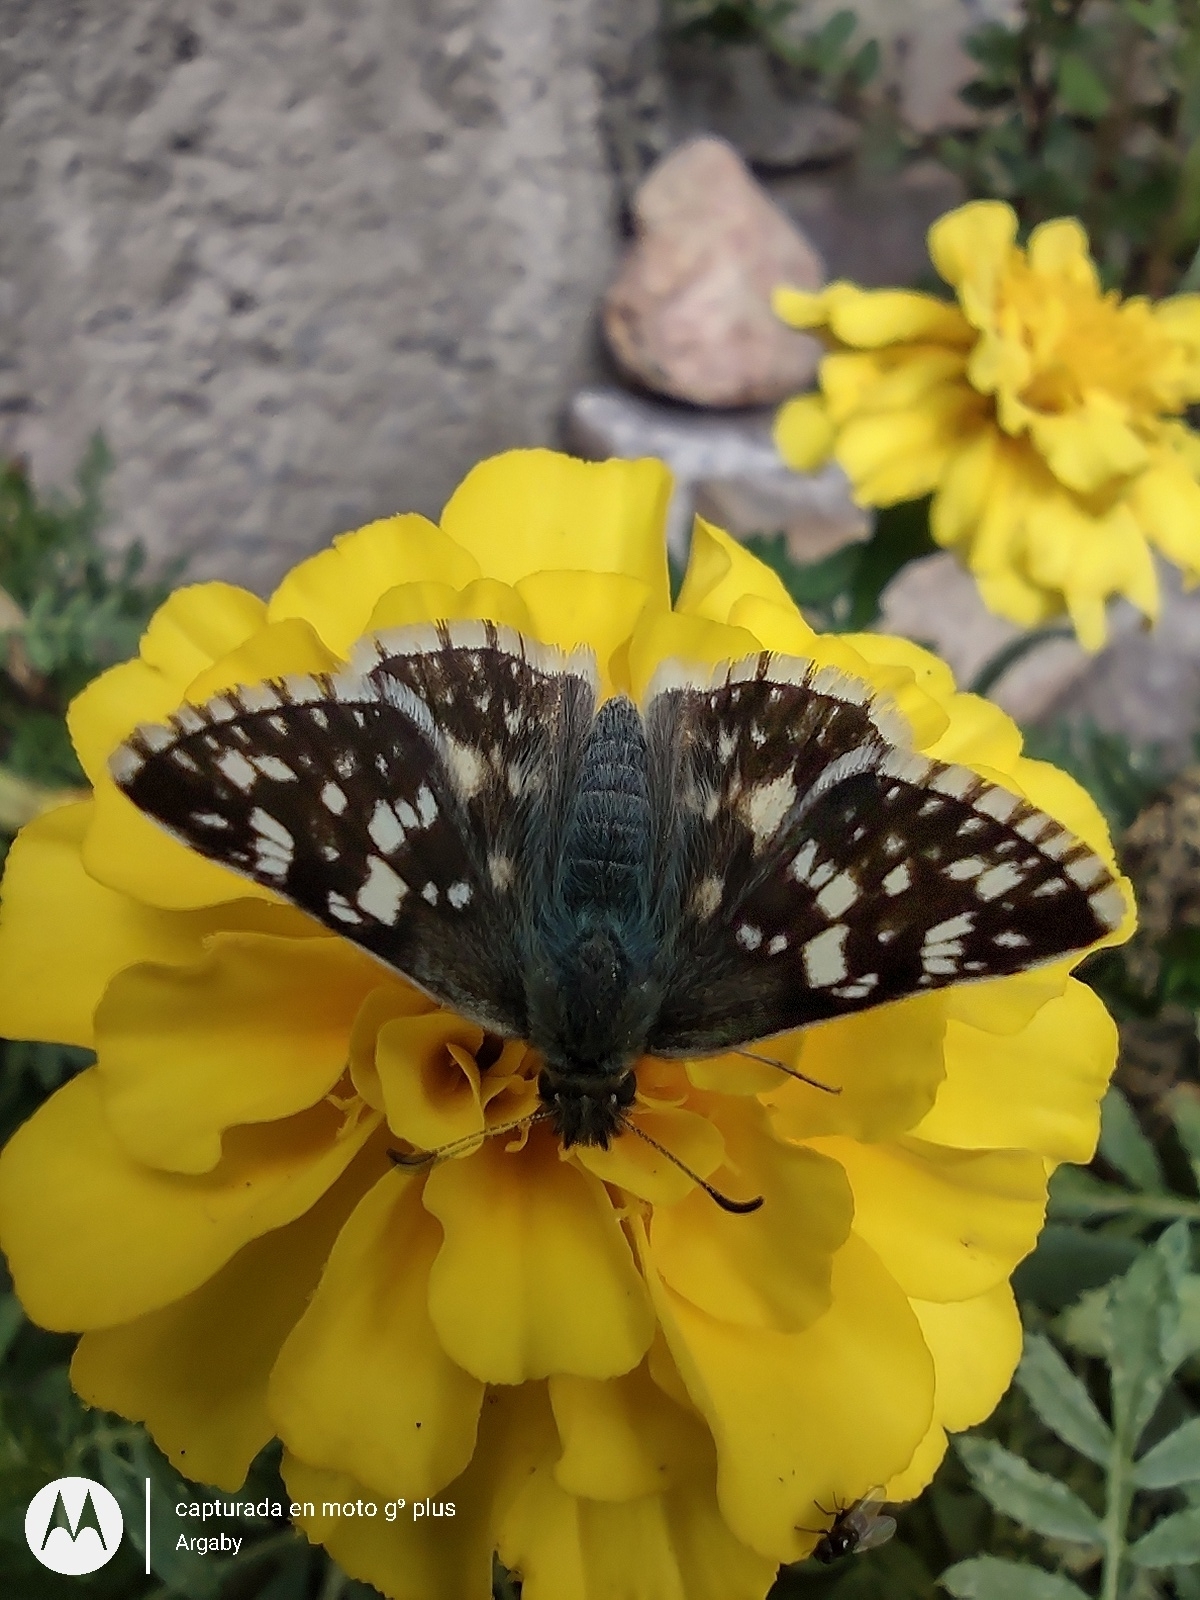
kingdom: Animalia
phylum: Arthropoda
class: Insecta
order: Lepidoptera
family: Hesperiidae
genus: Heliopetes
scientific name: Heliopetes americanus
